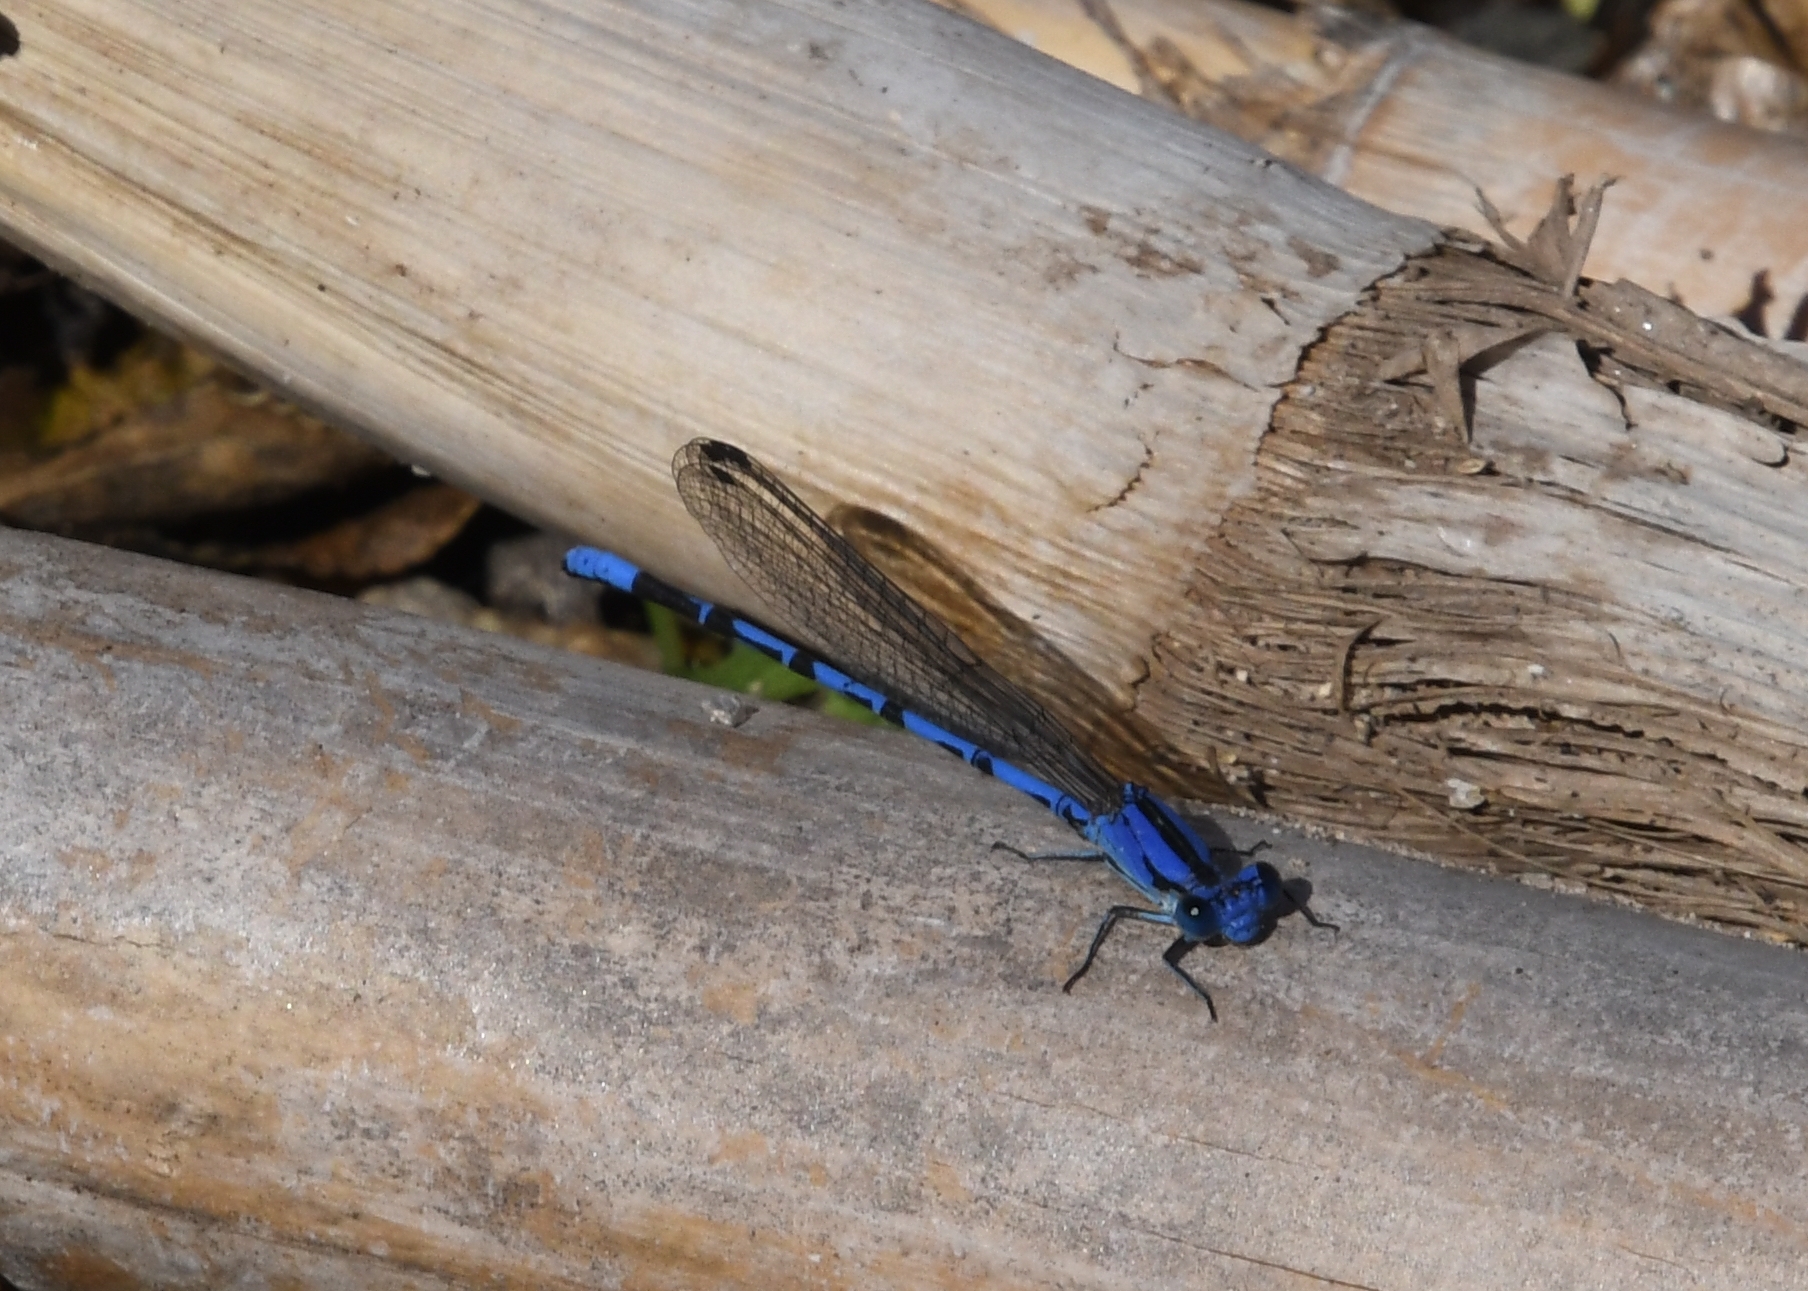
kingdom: Animalia
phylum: Arthropoda
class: Insecta
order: Odonata
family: Coenagrionidae
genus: Argia
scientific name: Argia extranea
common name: Spine-tipped dancer
